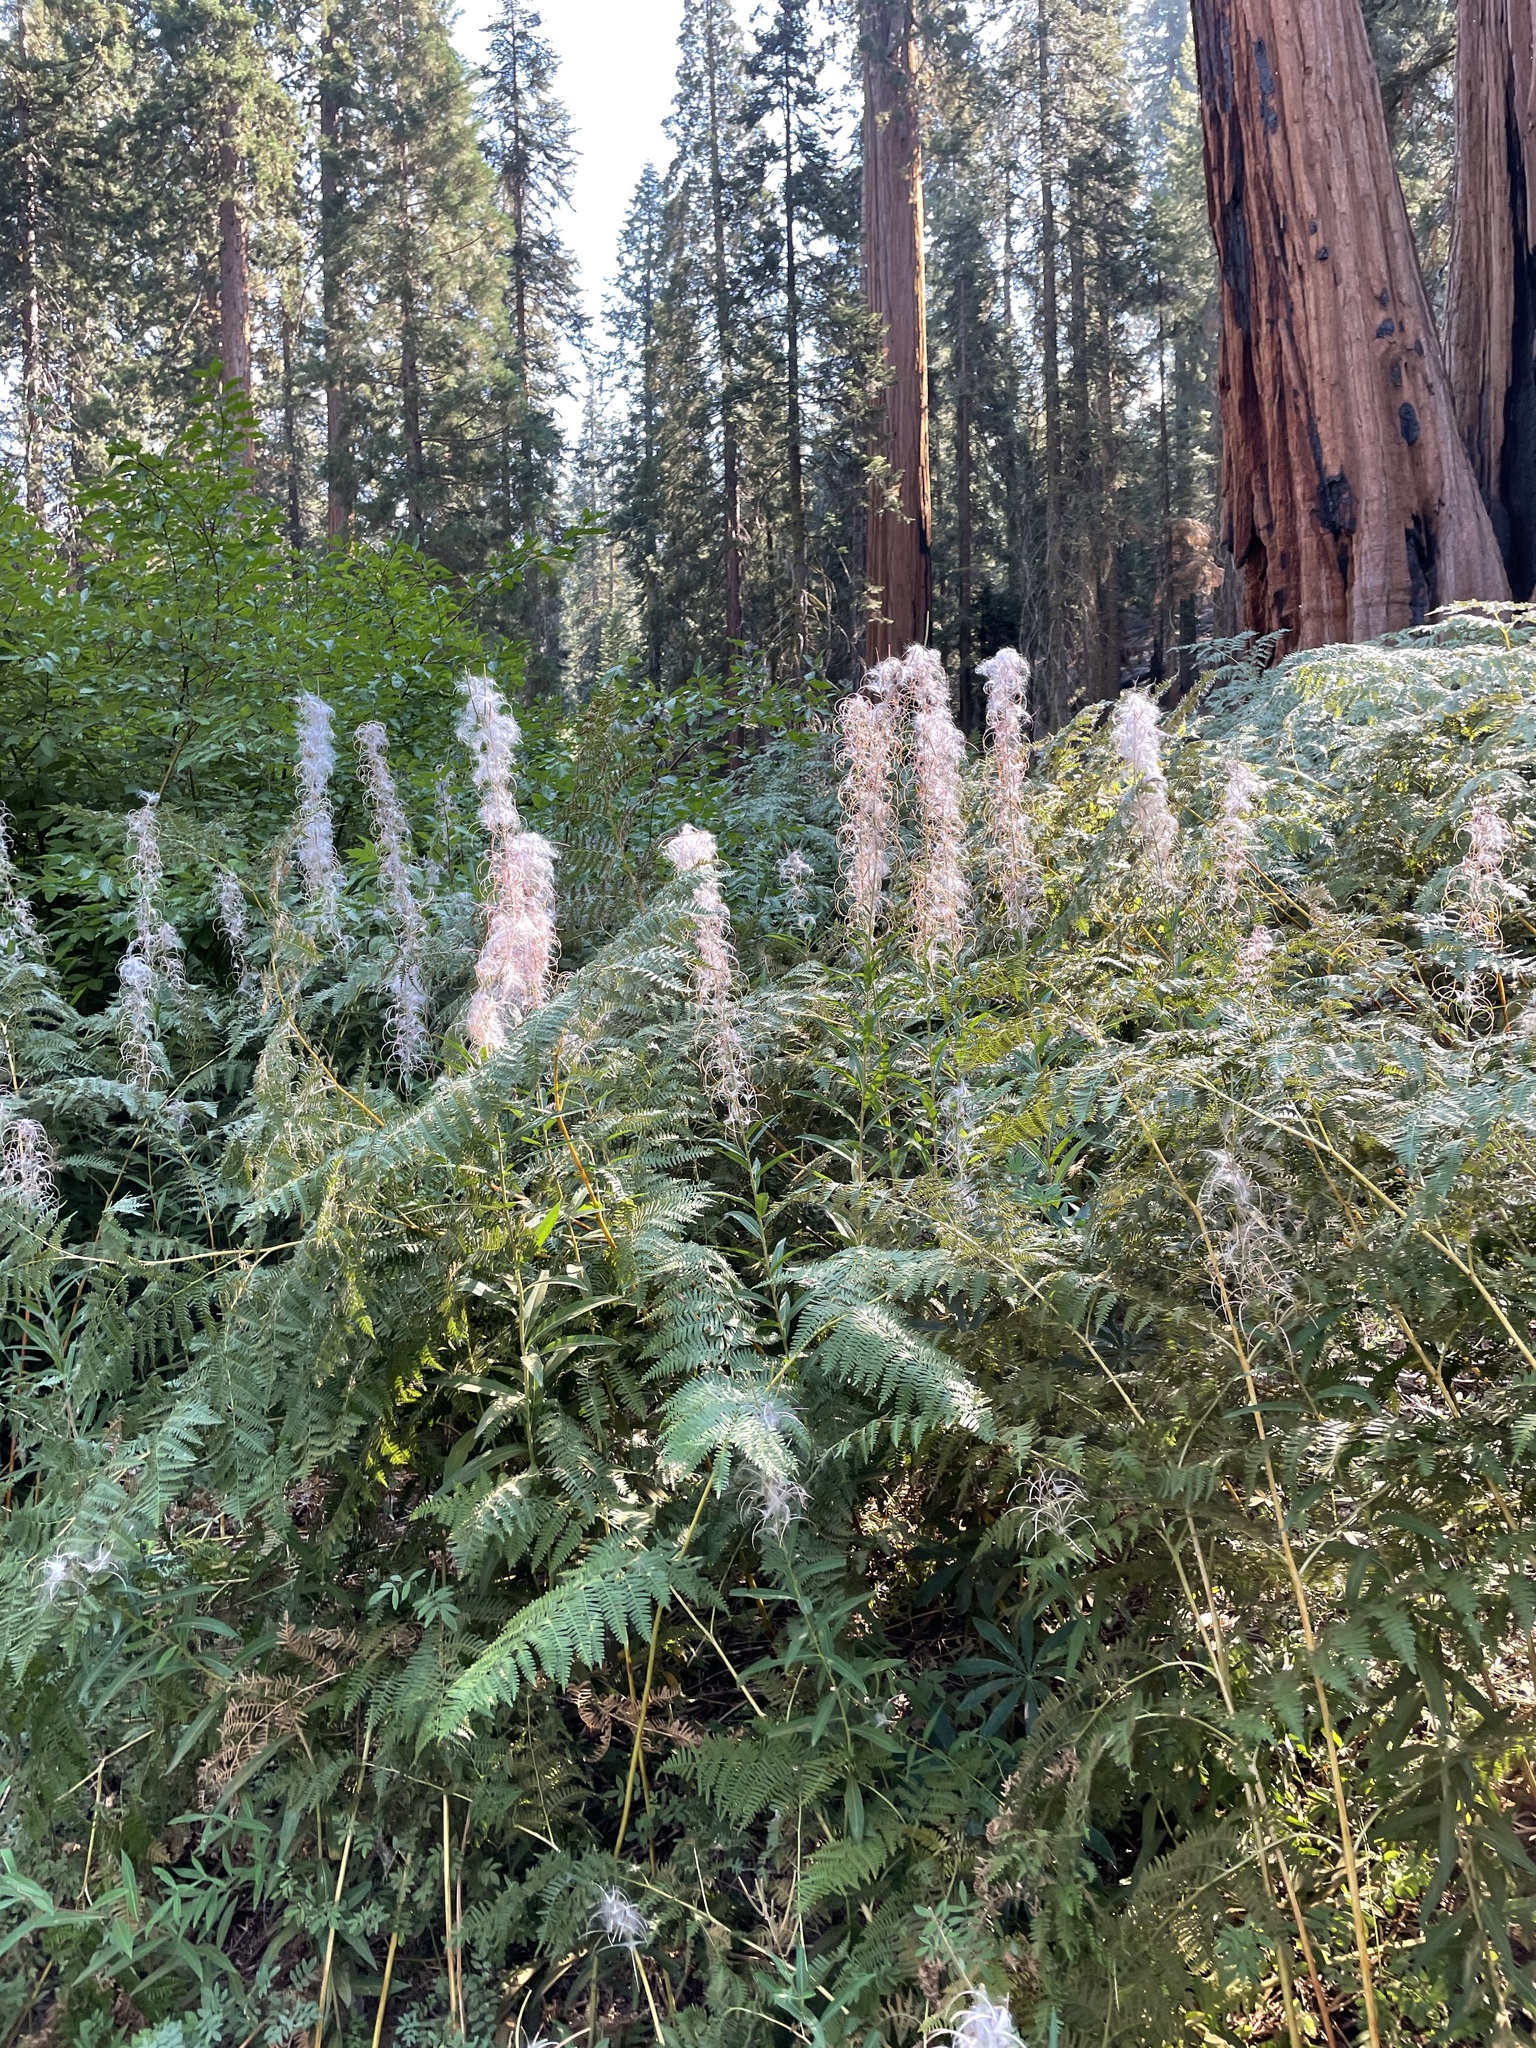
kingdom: Plantae
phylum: Tracheophyta
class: Magnoliopsida
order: Myrtales
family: Onagraceae
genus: Chamaenerion
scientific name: Chamaenerion angustifolium
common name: Fireweed
